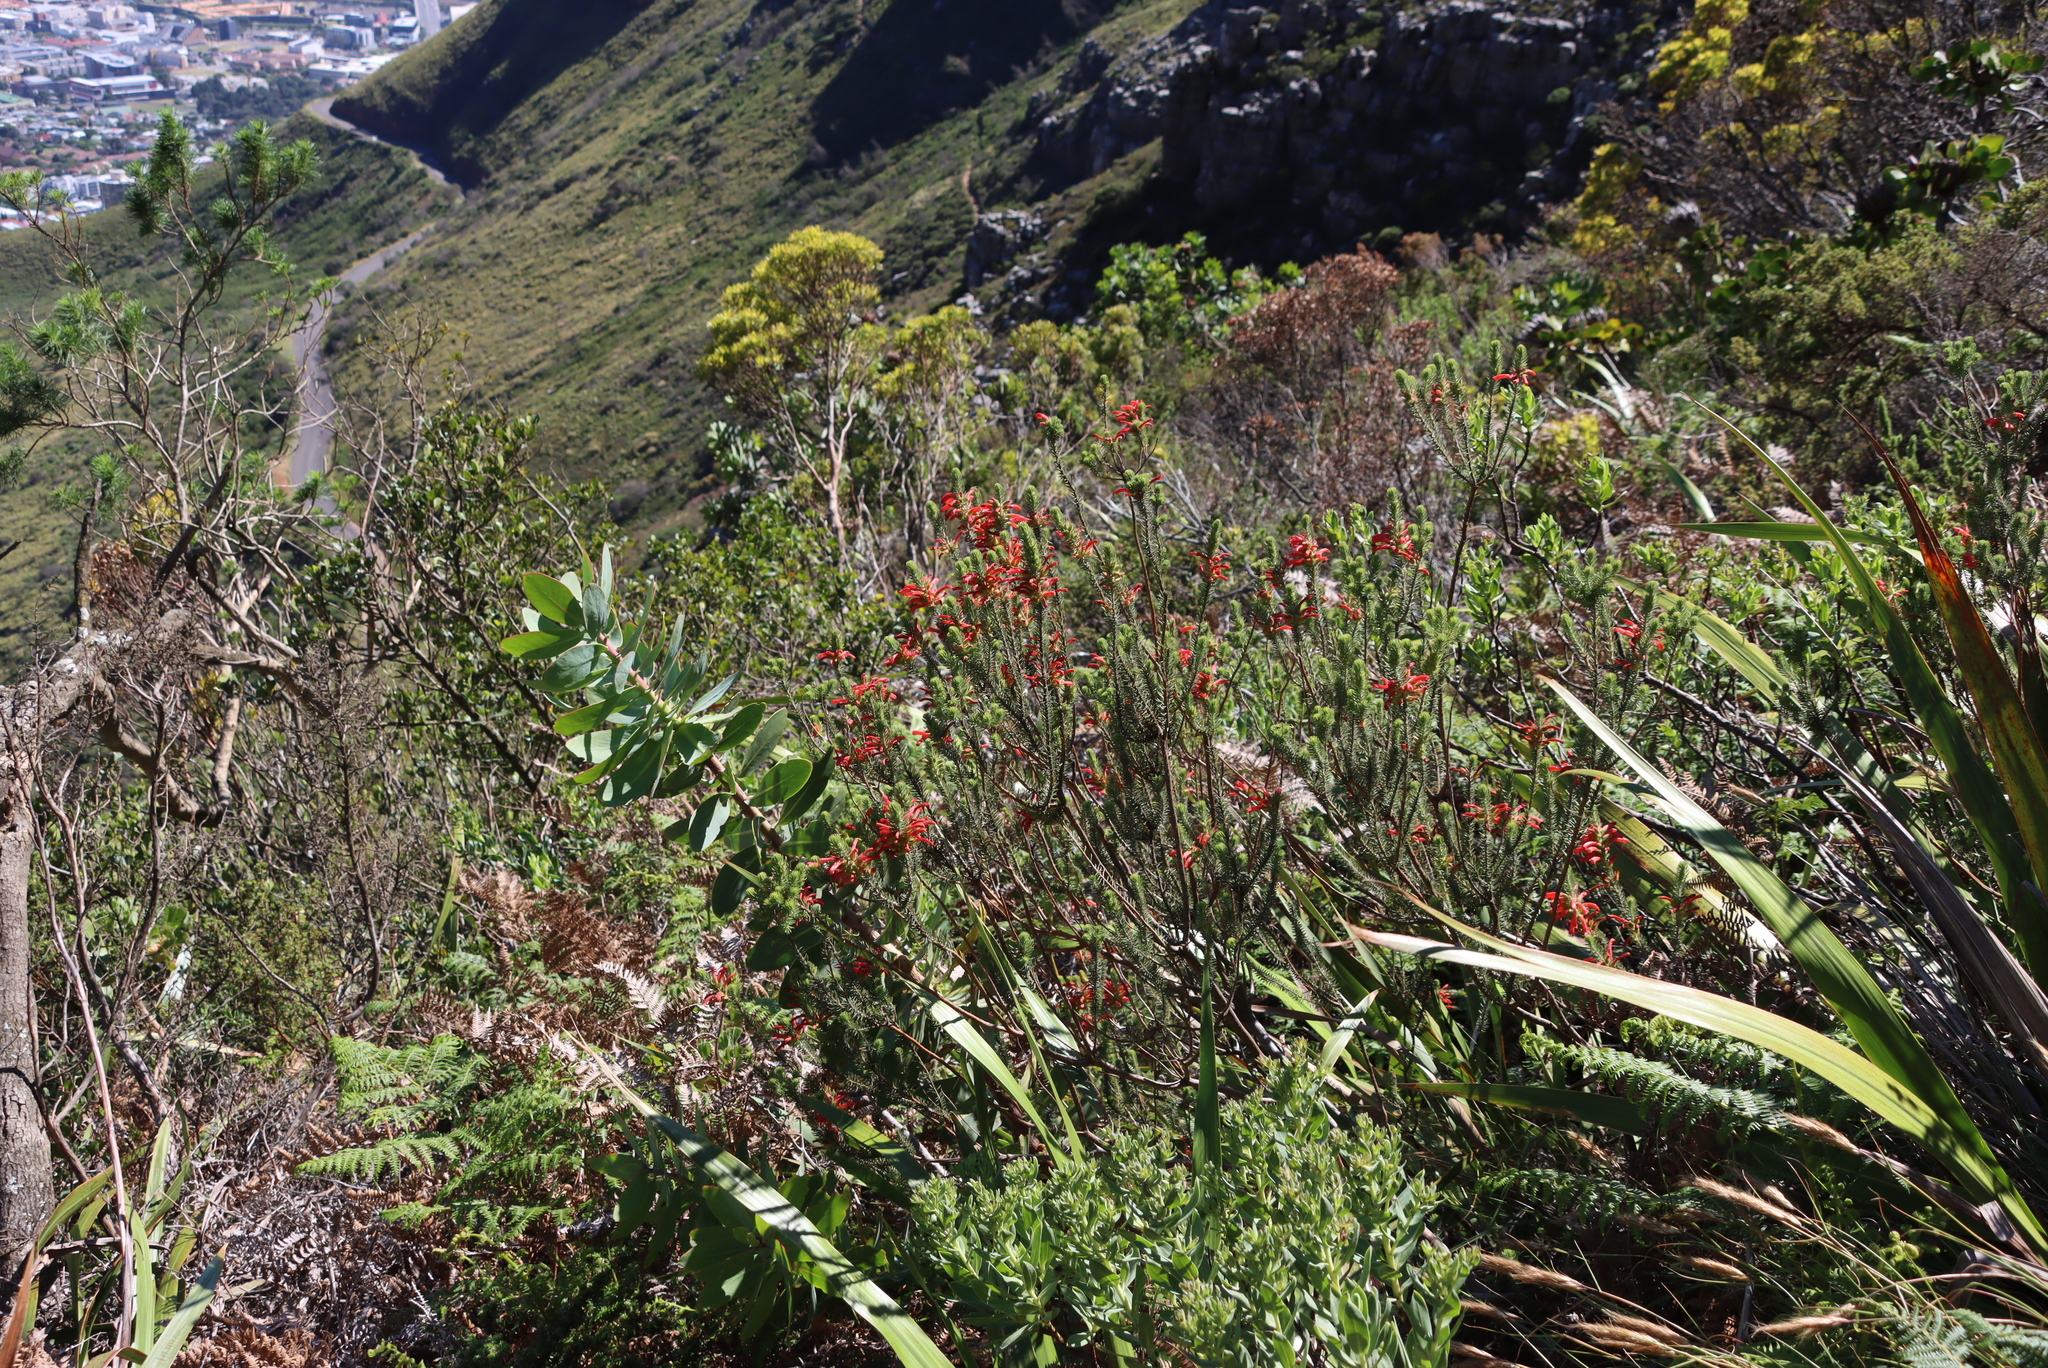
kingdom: Plantae
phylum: Tracheophyta
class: Magnoliopsida
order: Ericales
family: Ericaceae
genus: Erica
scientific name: Erica abietina
